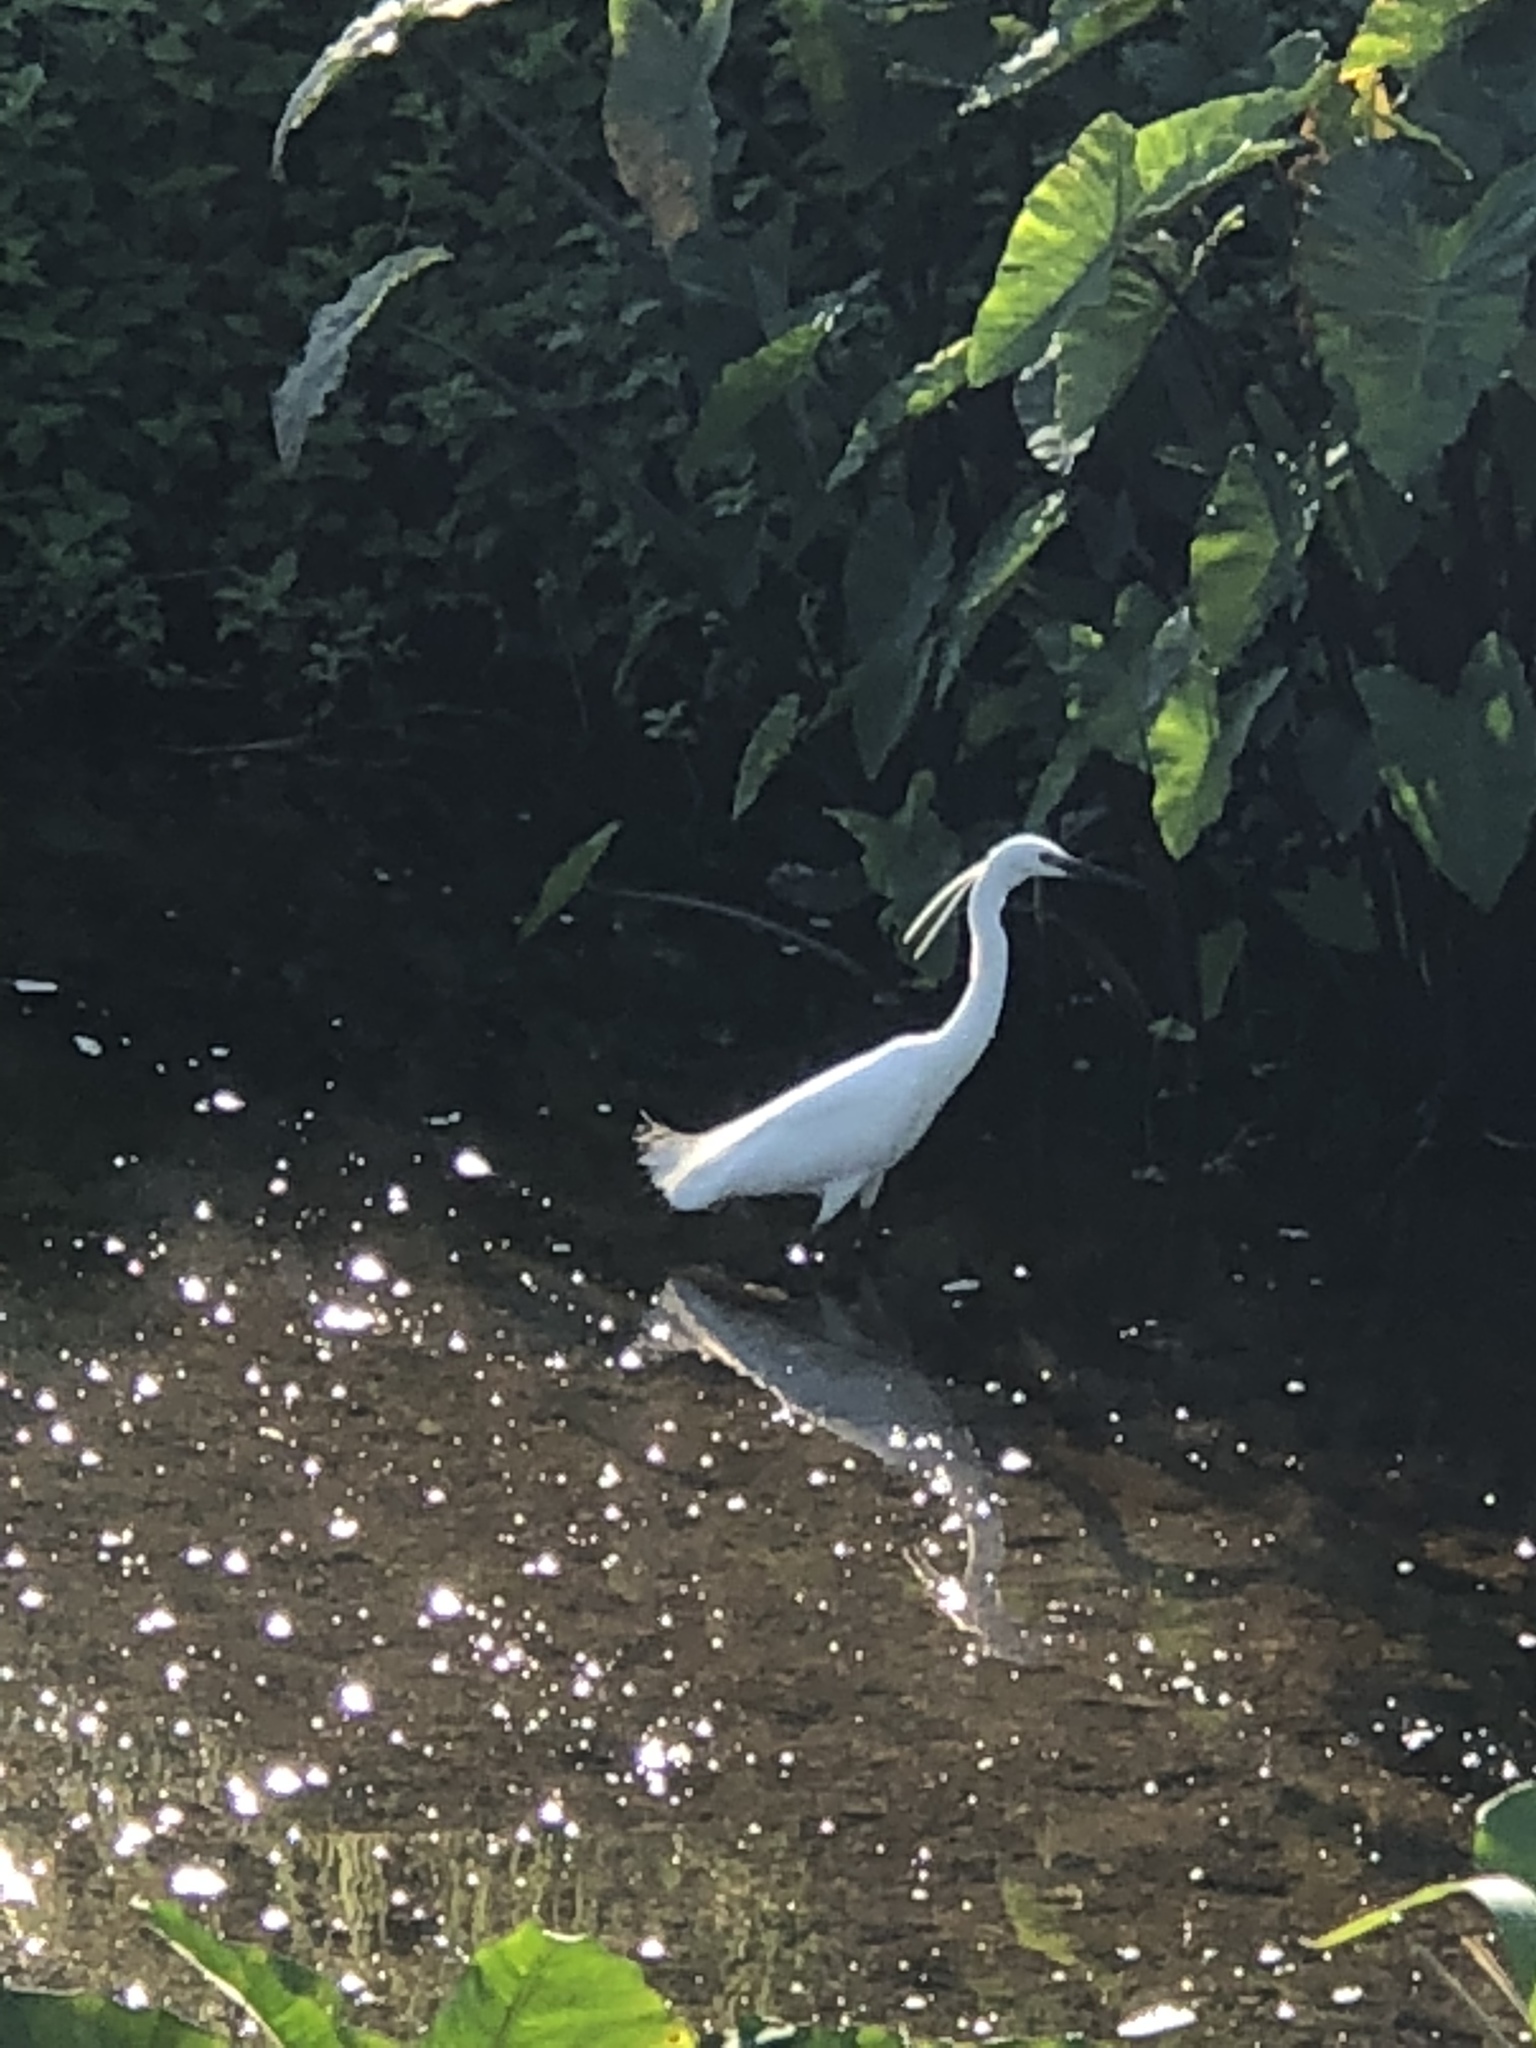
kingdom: Animalia
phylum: Chordata
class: Aves
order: Pelecaniformes
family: Ardeidae
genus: Egretta
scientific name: Egretta garzetta
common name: Little egret
